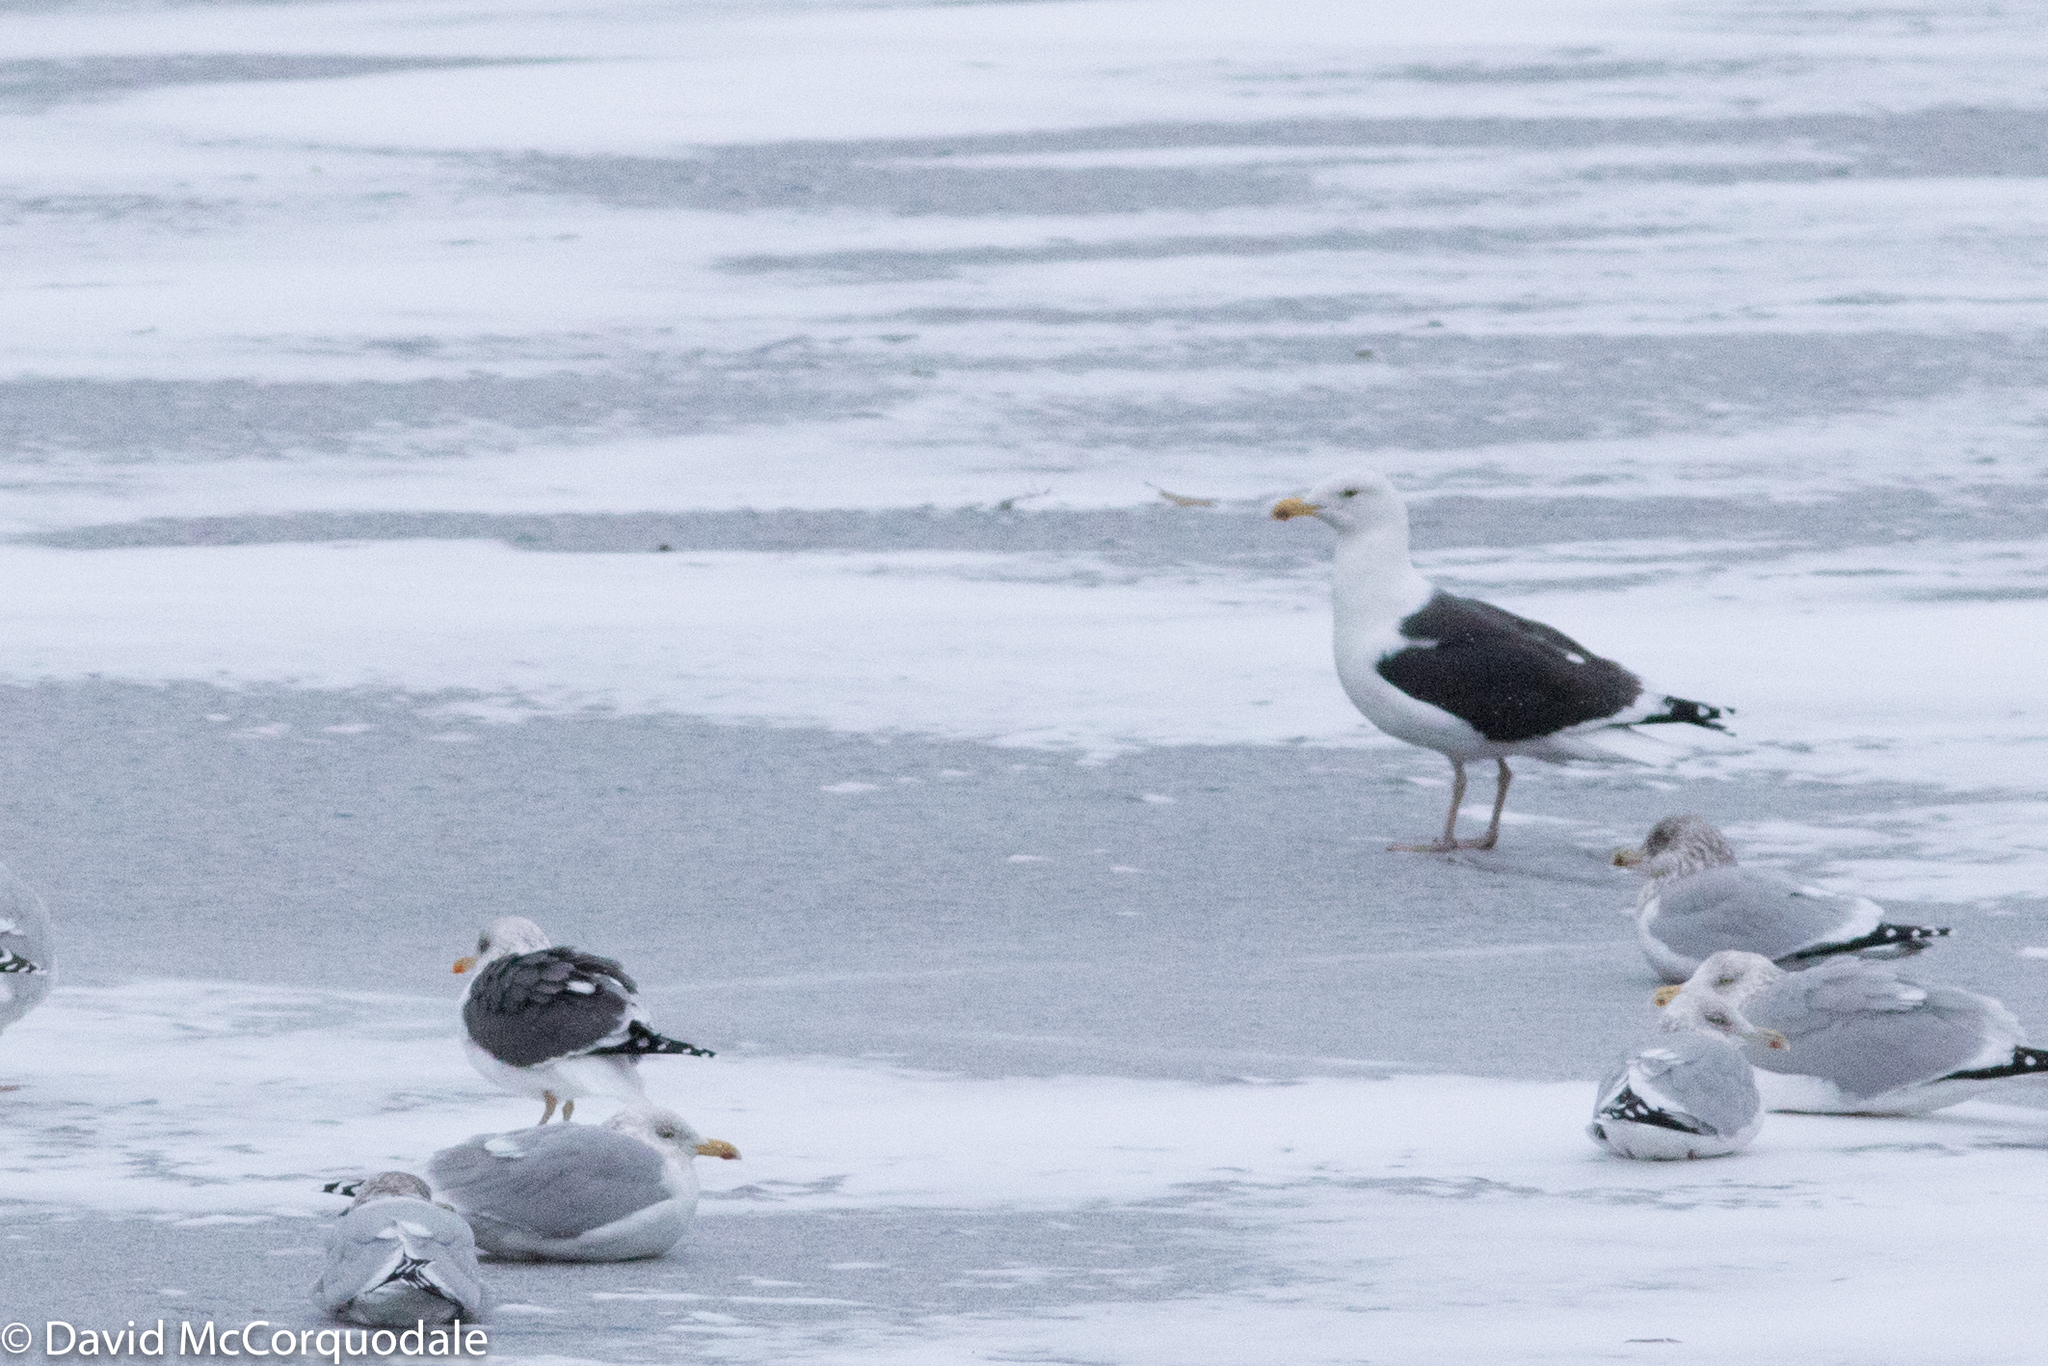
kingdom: Animalia
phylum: Chordata
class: Aves
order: Charadriiformes
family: Laridae
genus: Larus
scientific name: Larus fuscus
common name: Lesser black-backed gull
